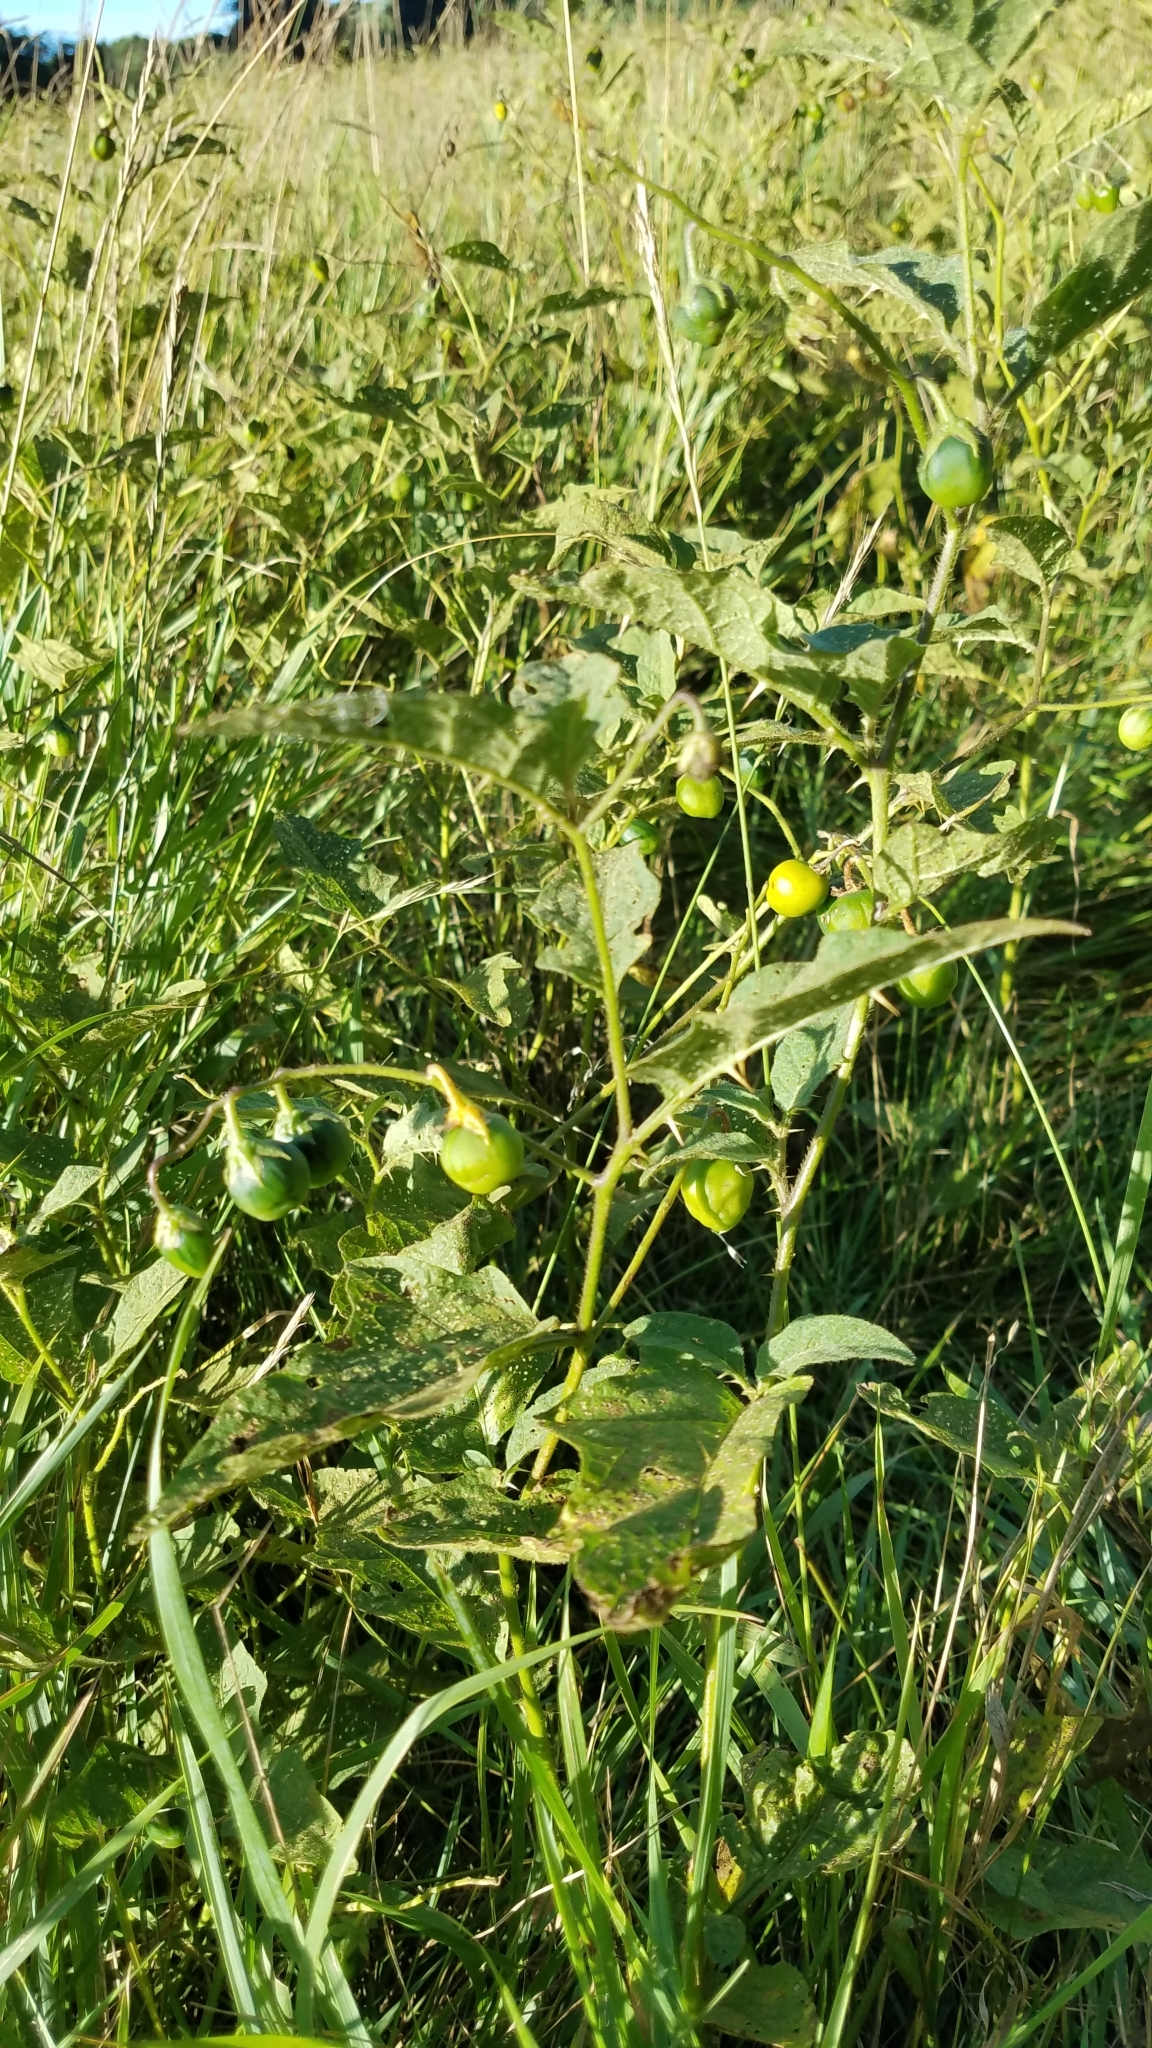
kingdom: Plantae
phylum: Tracheophyta
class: Magnoliopsida
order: Solanales
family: Solanaceae
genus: Solanum
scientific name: Solanum carolinense
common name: Horse-nettle
